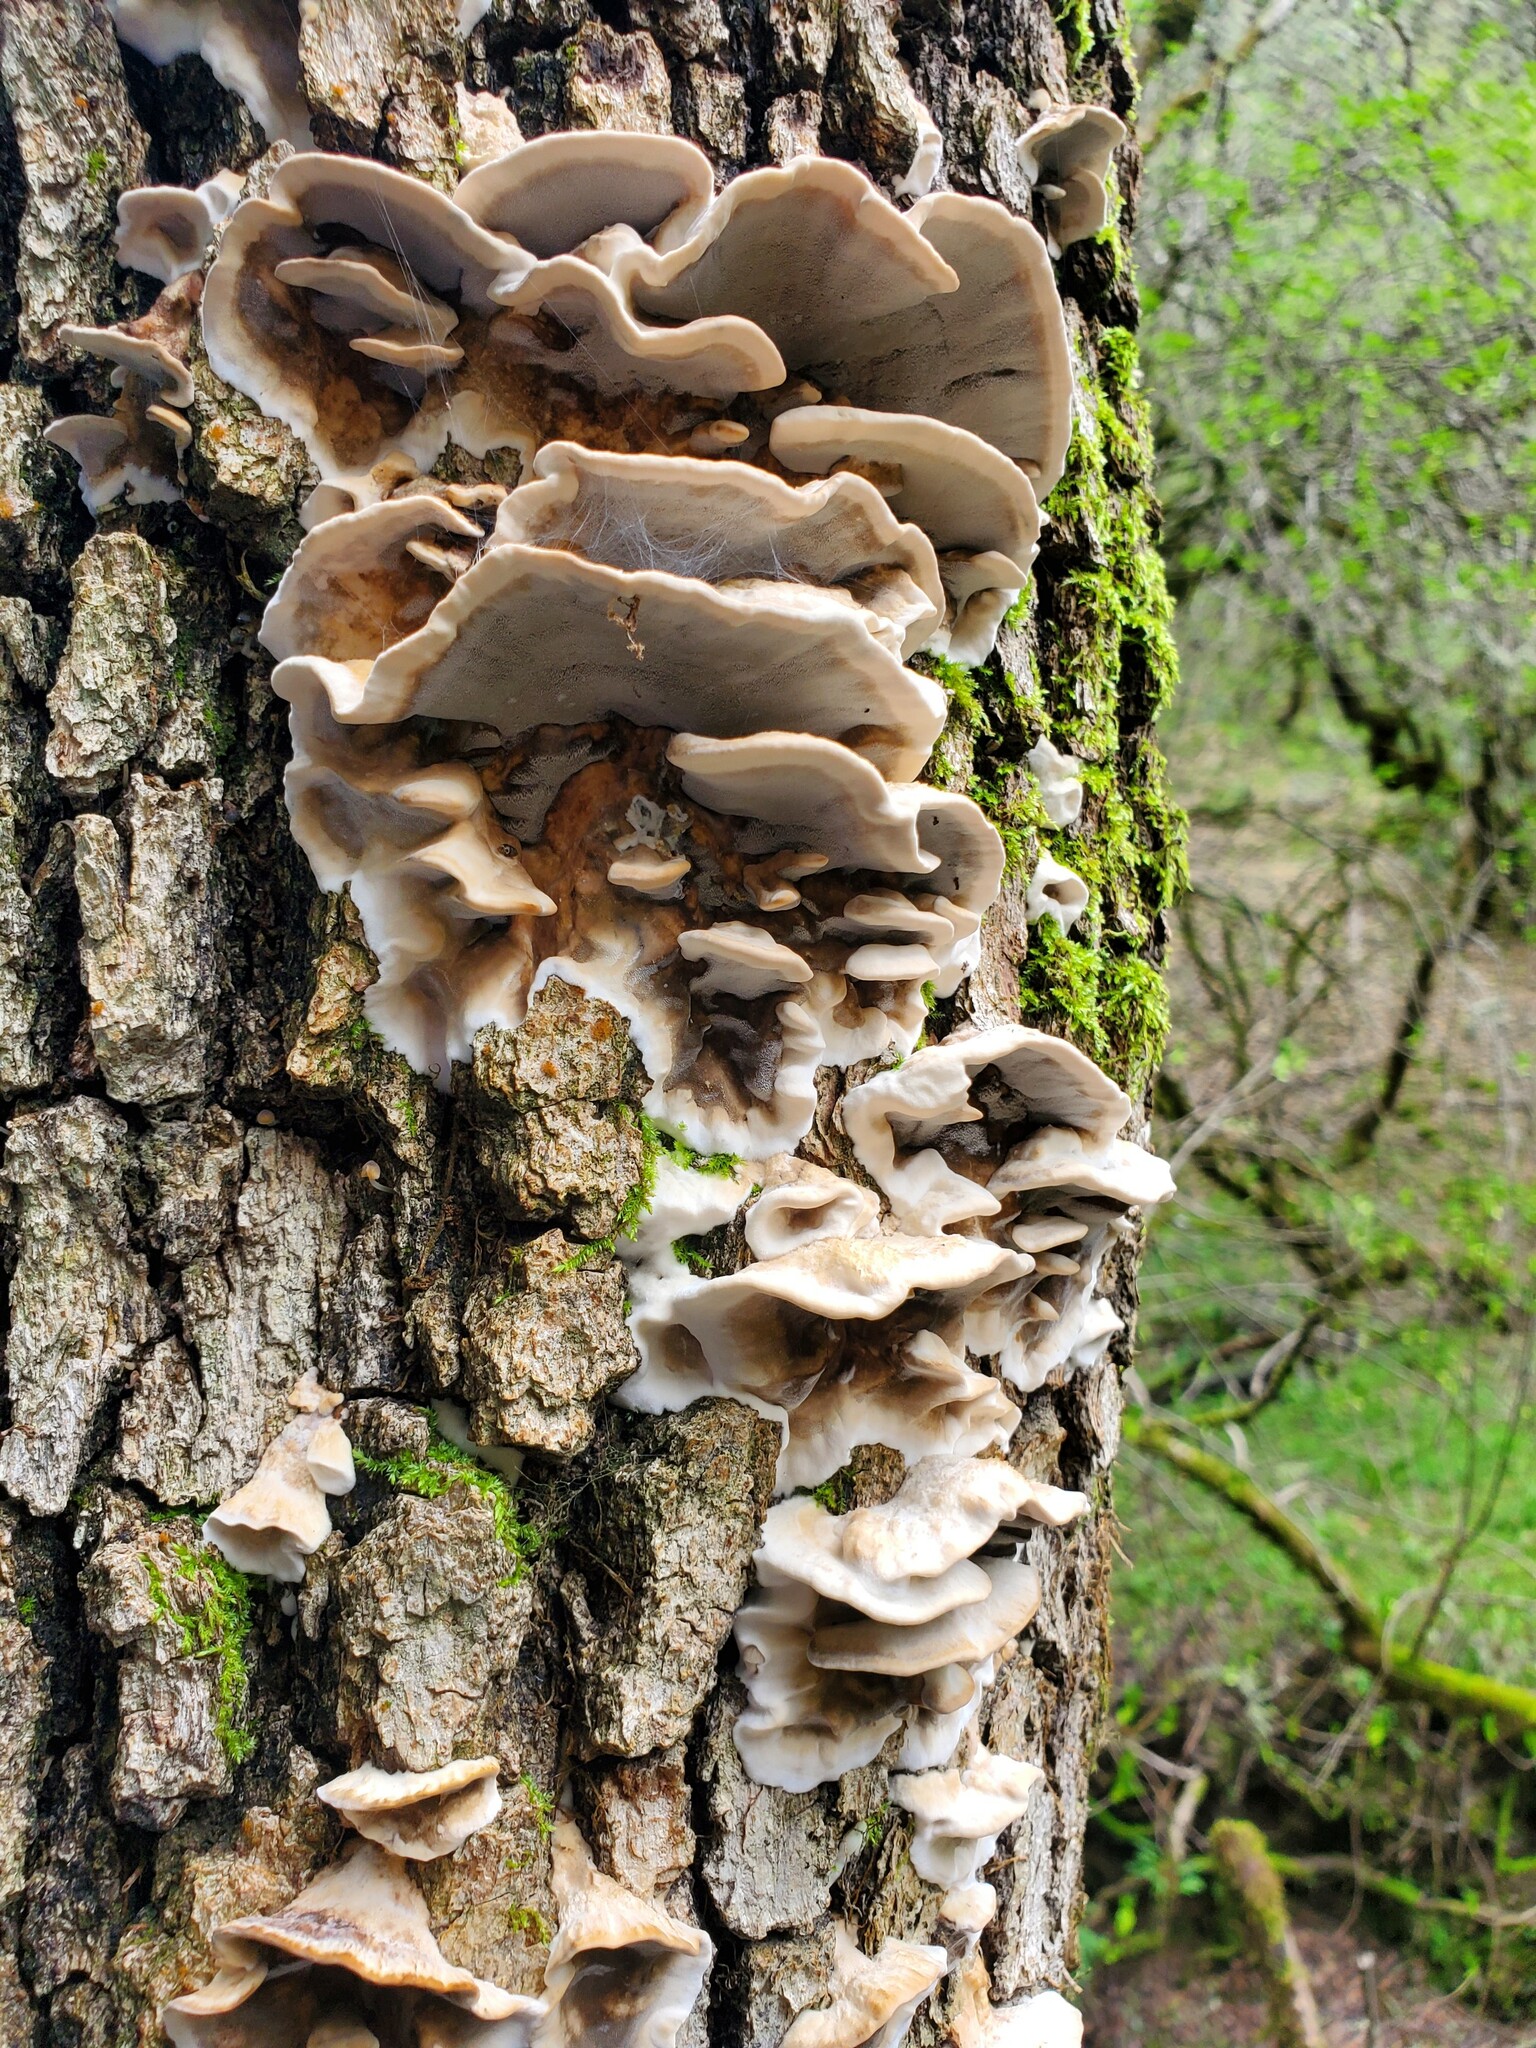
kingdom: Fungi
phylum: Basidiomycota
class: Agaricomycetes
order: Polyporales
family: Phanerochaetaceae
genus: Bjerkandera
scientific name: Bjerkandera adusta
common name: Smoky bracket
